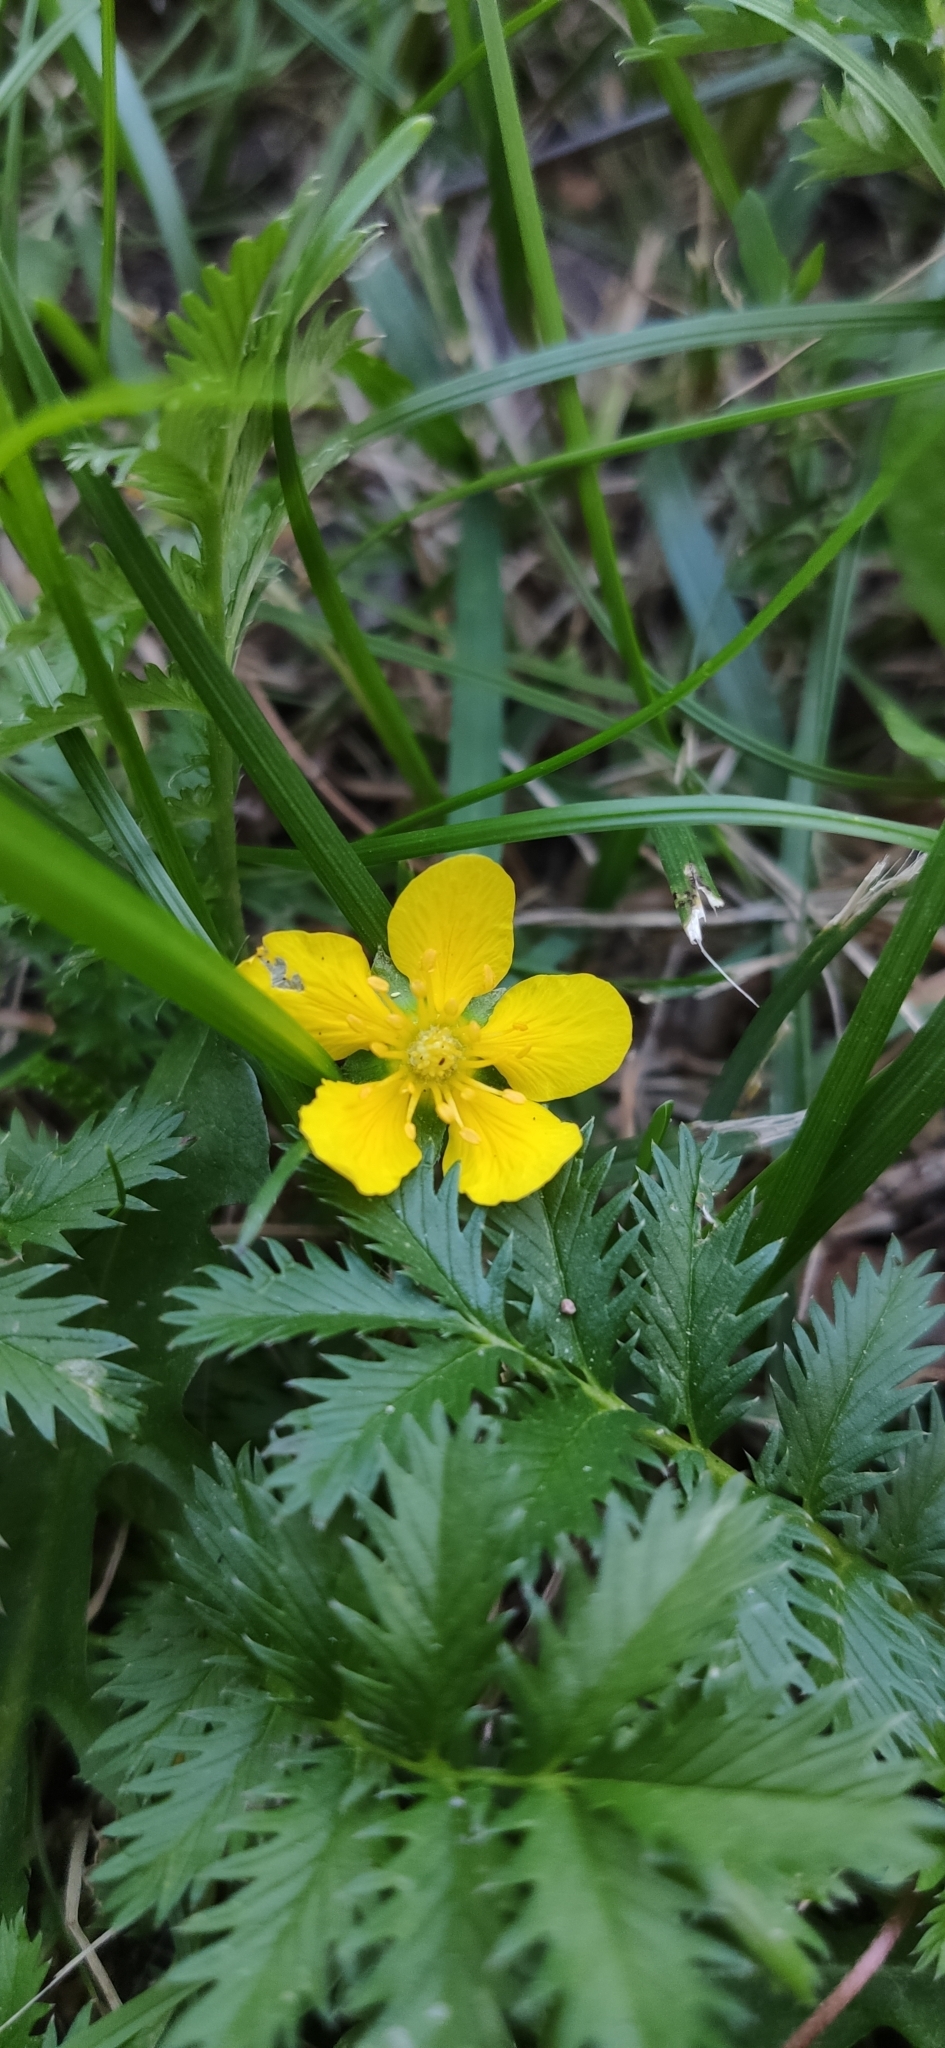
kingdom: Plantae
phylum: Tracheophyta
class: Magnoliopsida
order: Rosales
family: Rosaceae
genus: Argentina
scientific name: Argentina anserina
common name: Common silverweed
